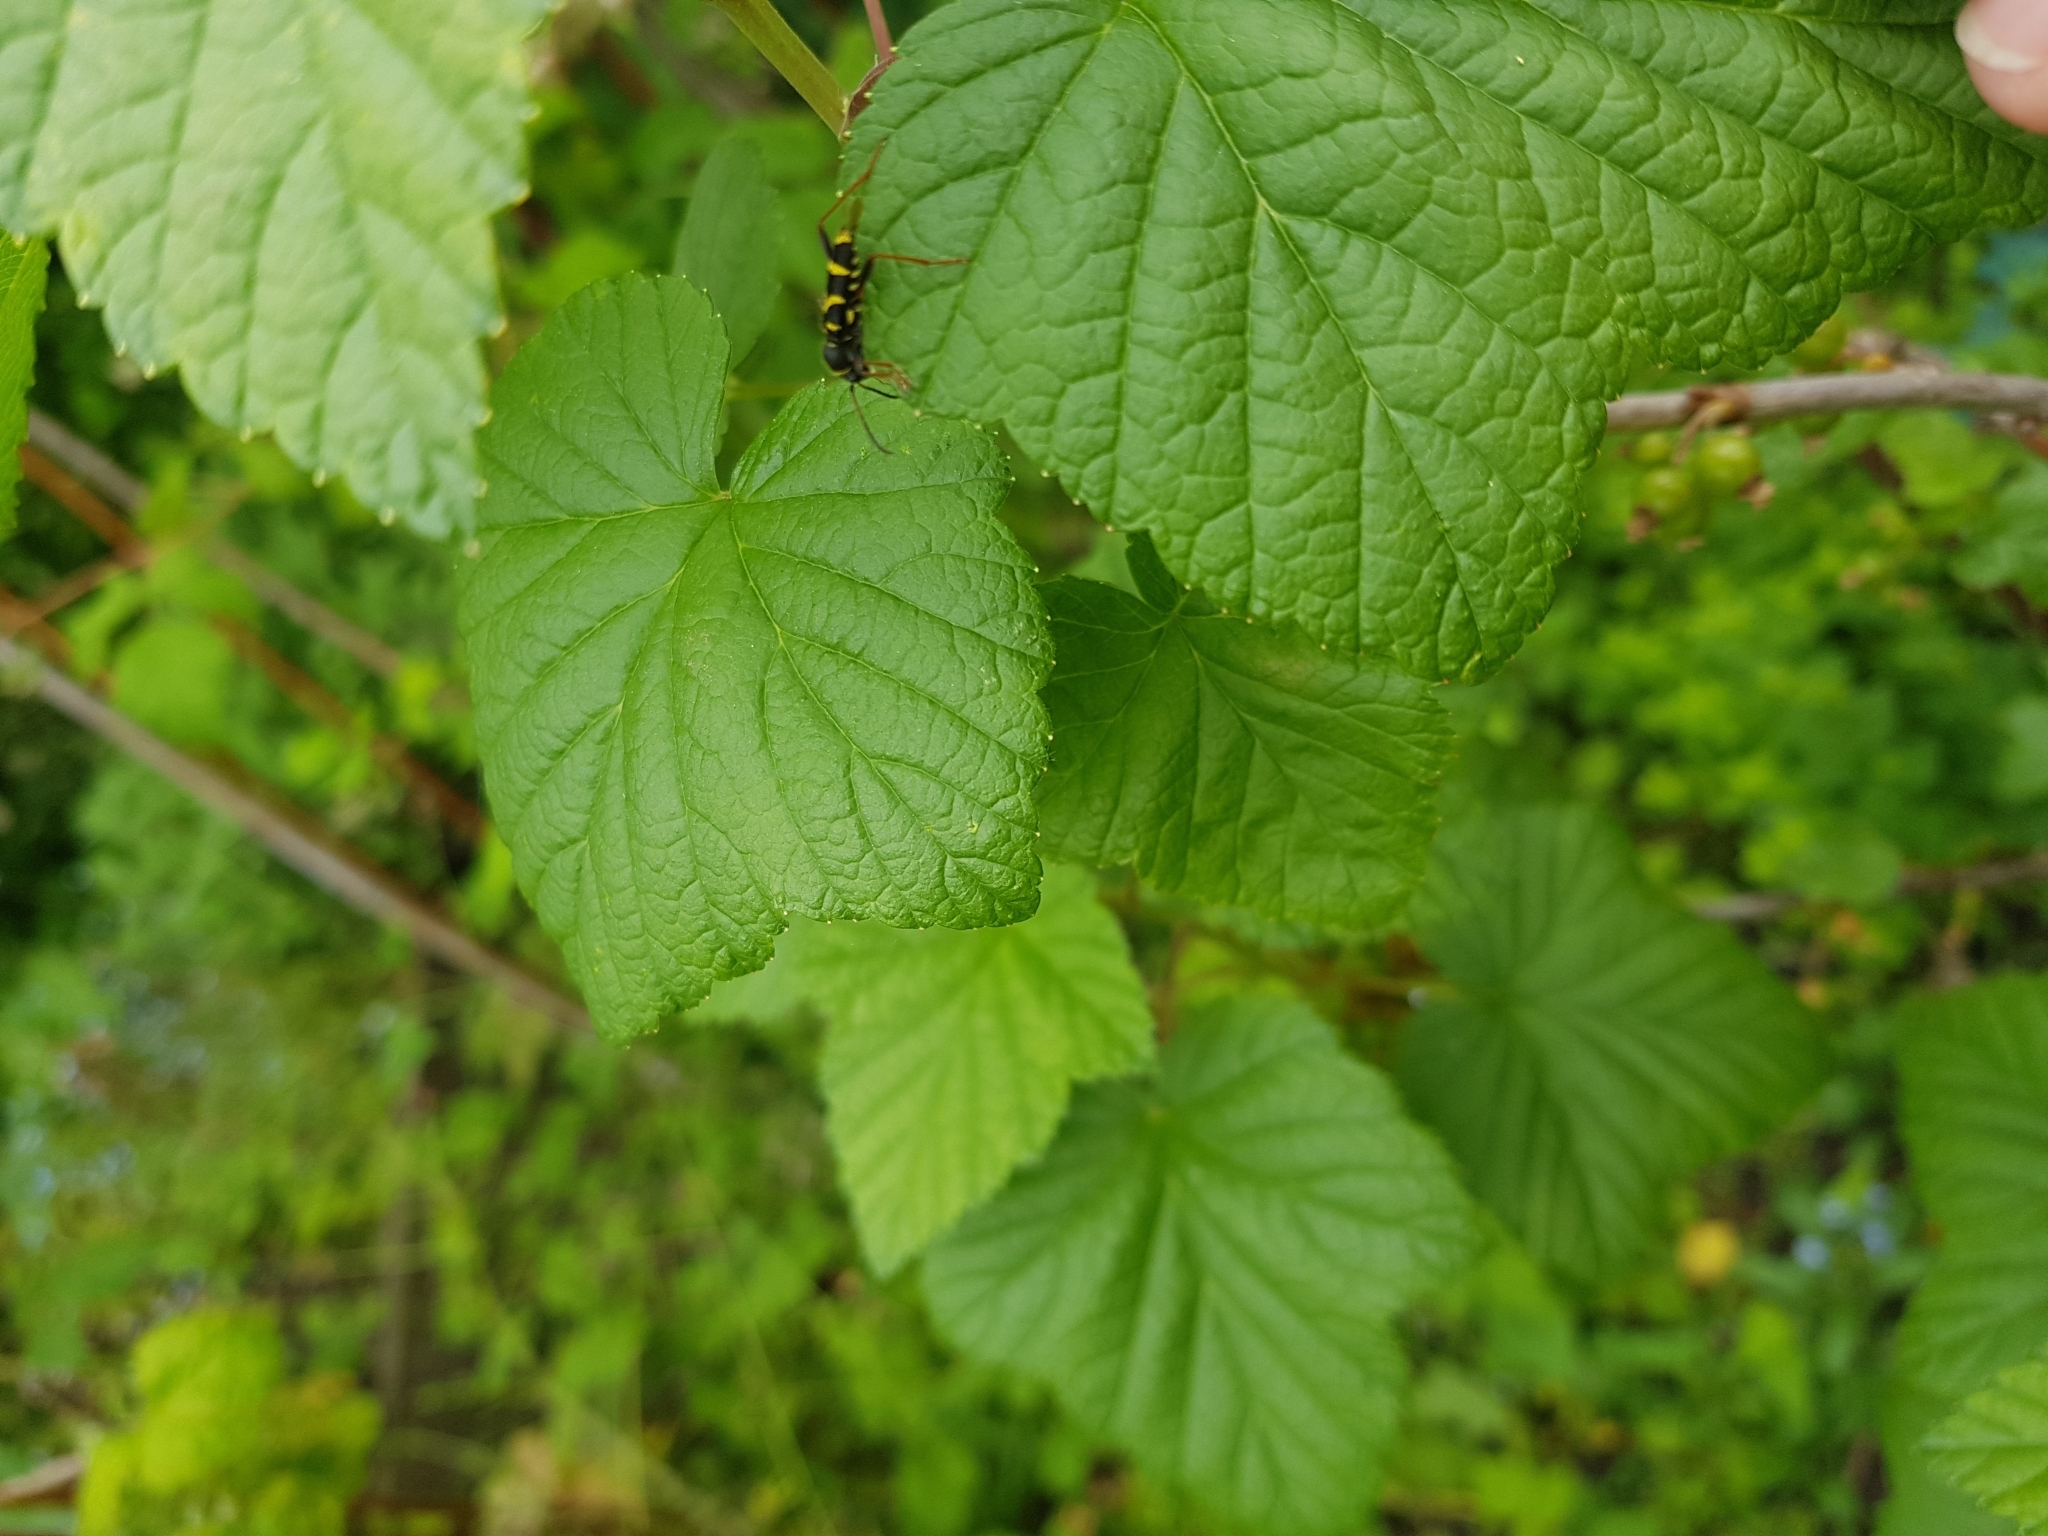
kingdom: Animalia
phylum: Arthropoda
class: Insecta
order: Coleoptera
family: Cerambycidae
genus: Clytus
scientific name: Clytus arietis
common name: Wasp beetle
